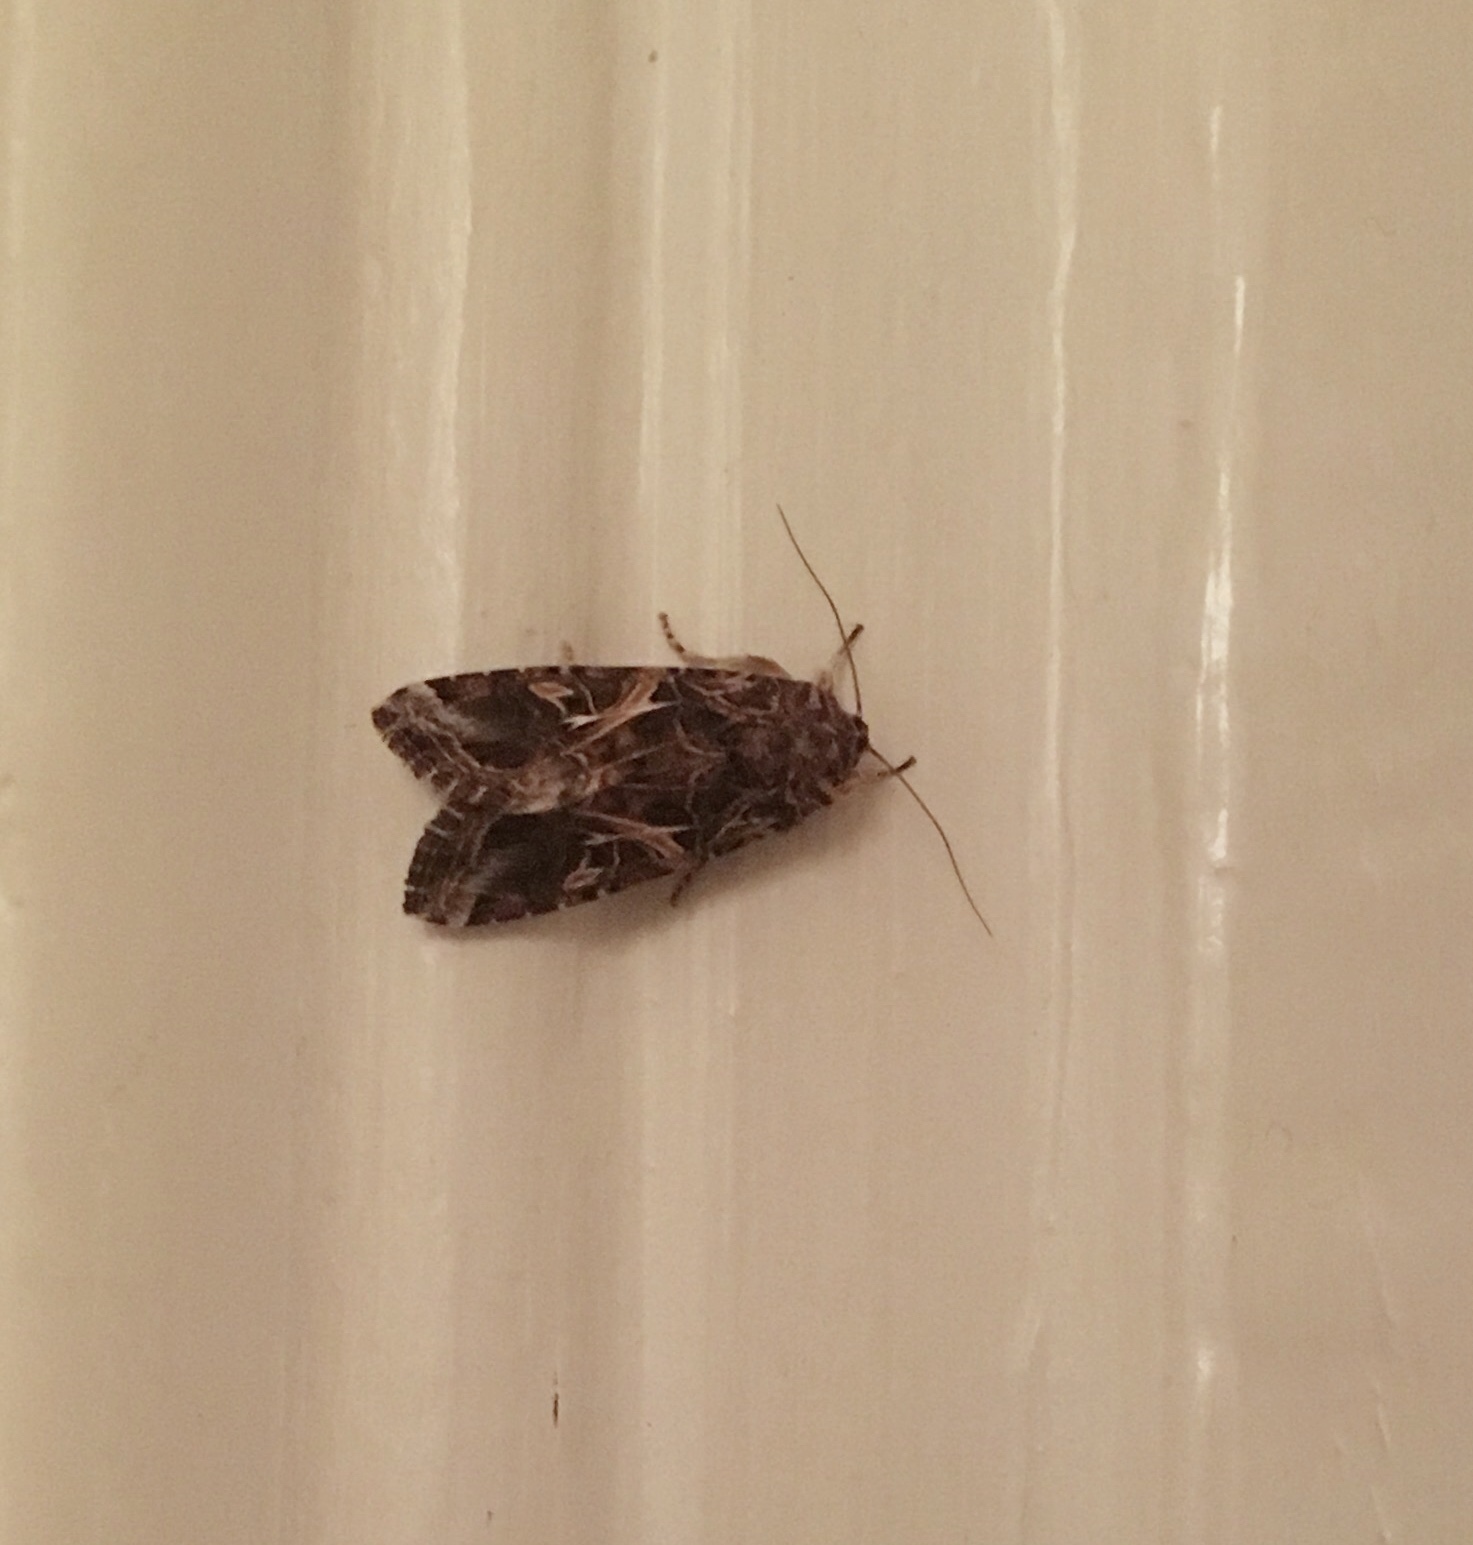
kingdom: Animalia
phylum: Arthropoda
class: Insecta
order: Lepidoptera
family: Noctuidae
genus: Spodoptera
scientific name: Spodoptera ornithogalli
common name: Yellow-striped armyworm
